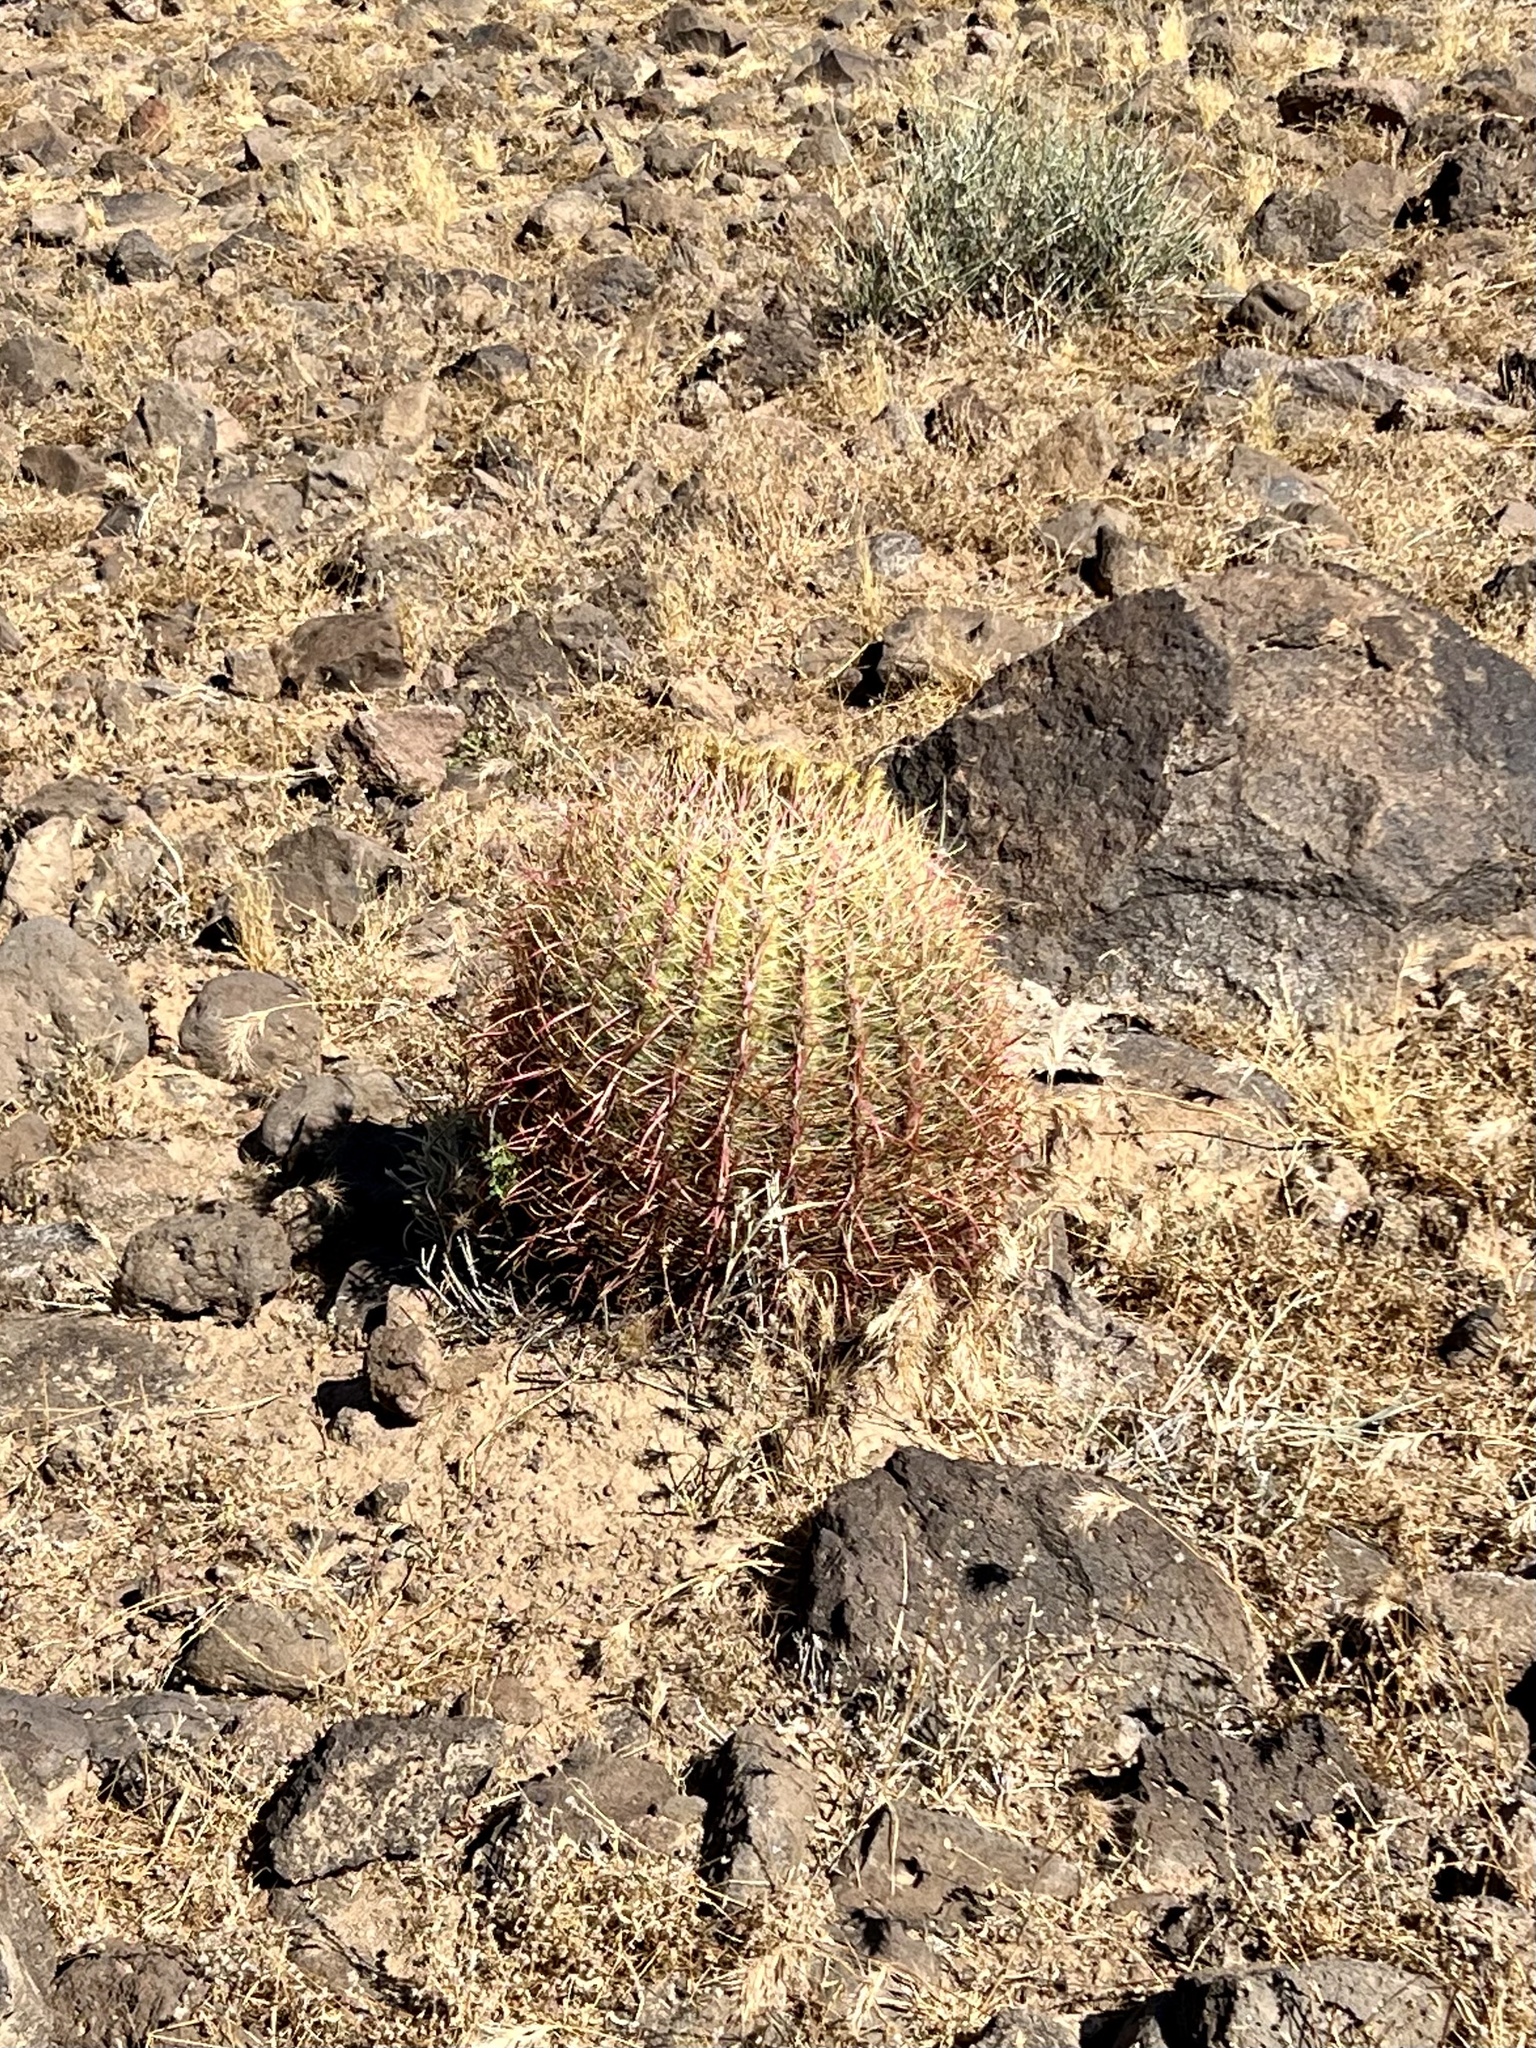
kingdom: Plantae
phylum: Tracheophyta
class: Magnoliopsida
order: Caryophyllales
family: Cactaceae
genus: Ferocactus
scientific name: Ferocactus cylindraceus
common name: California barrel cactus
